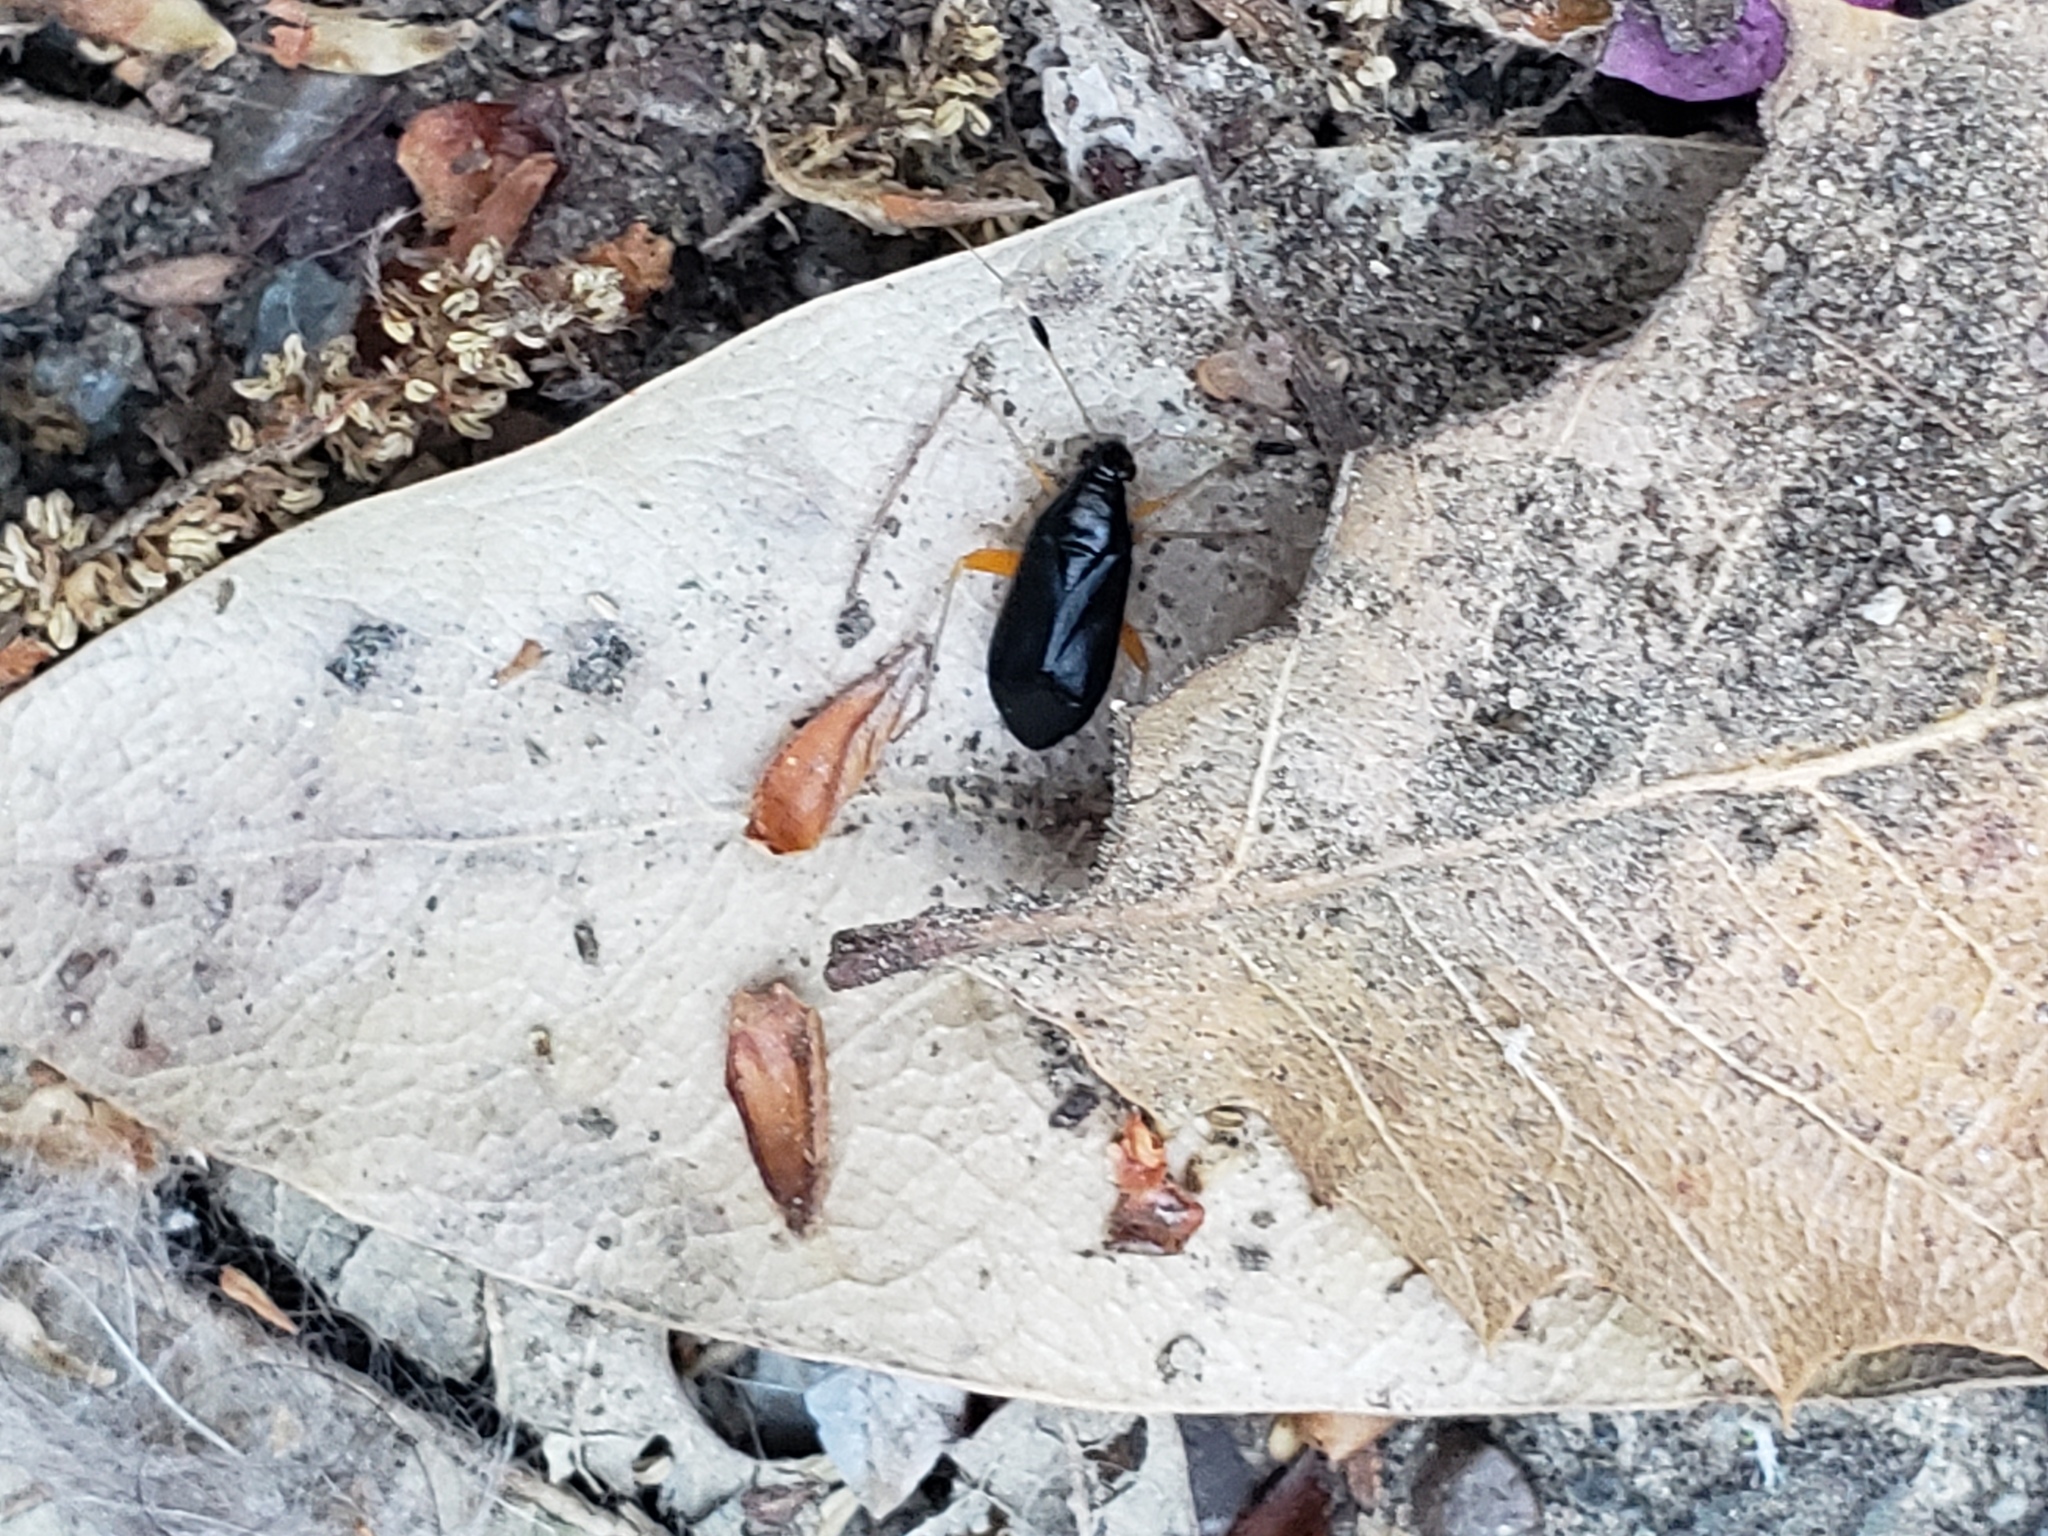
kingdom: Animalia
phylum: Arthropoda
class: Insecta
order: Hemiptera
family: Miridae
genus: Teleorhinus
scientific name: Teleorhinus tephrosicola
